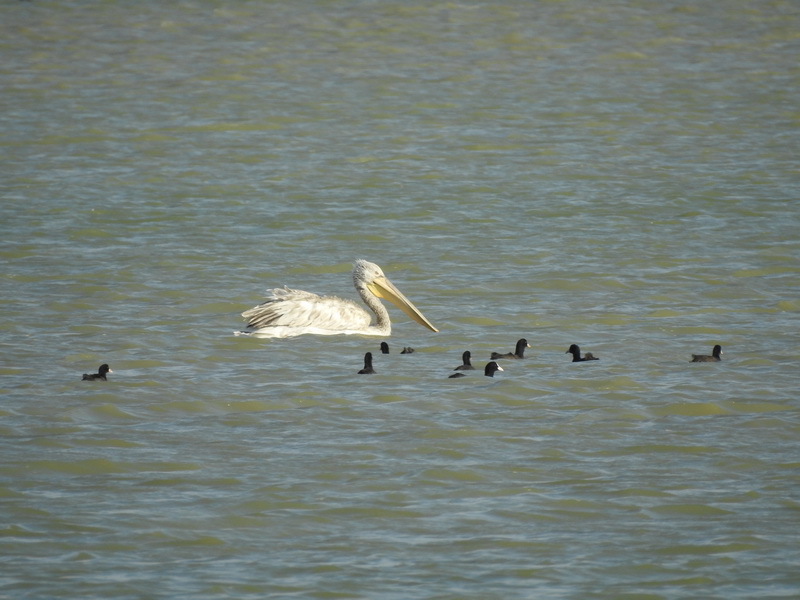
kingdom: Animalia
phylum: Chordata
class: Aves
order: Pelecaniformes
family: Pelecanidae
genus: Pelecanus
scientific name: Pelecanus crispus
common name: Dalmatian pelican
